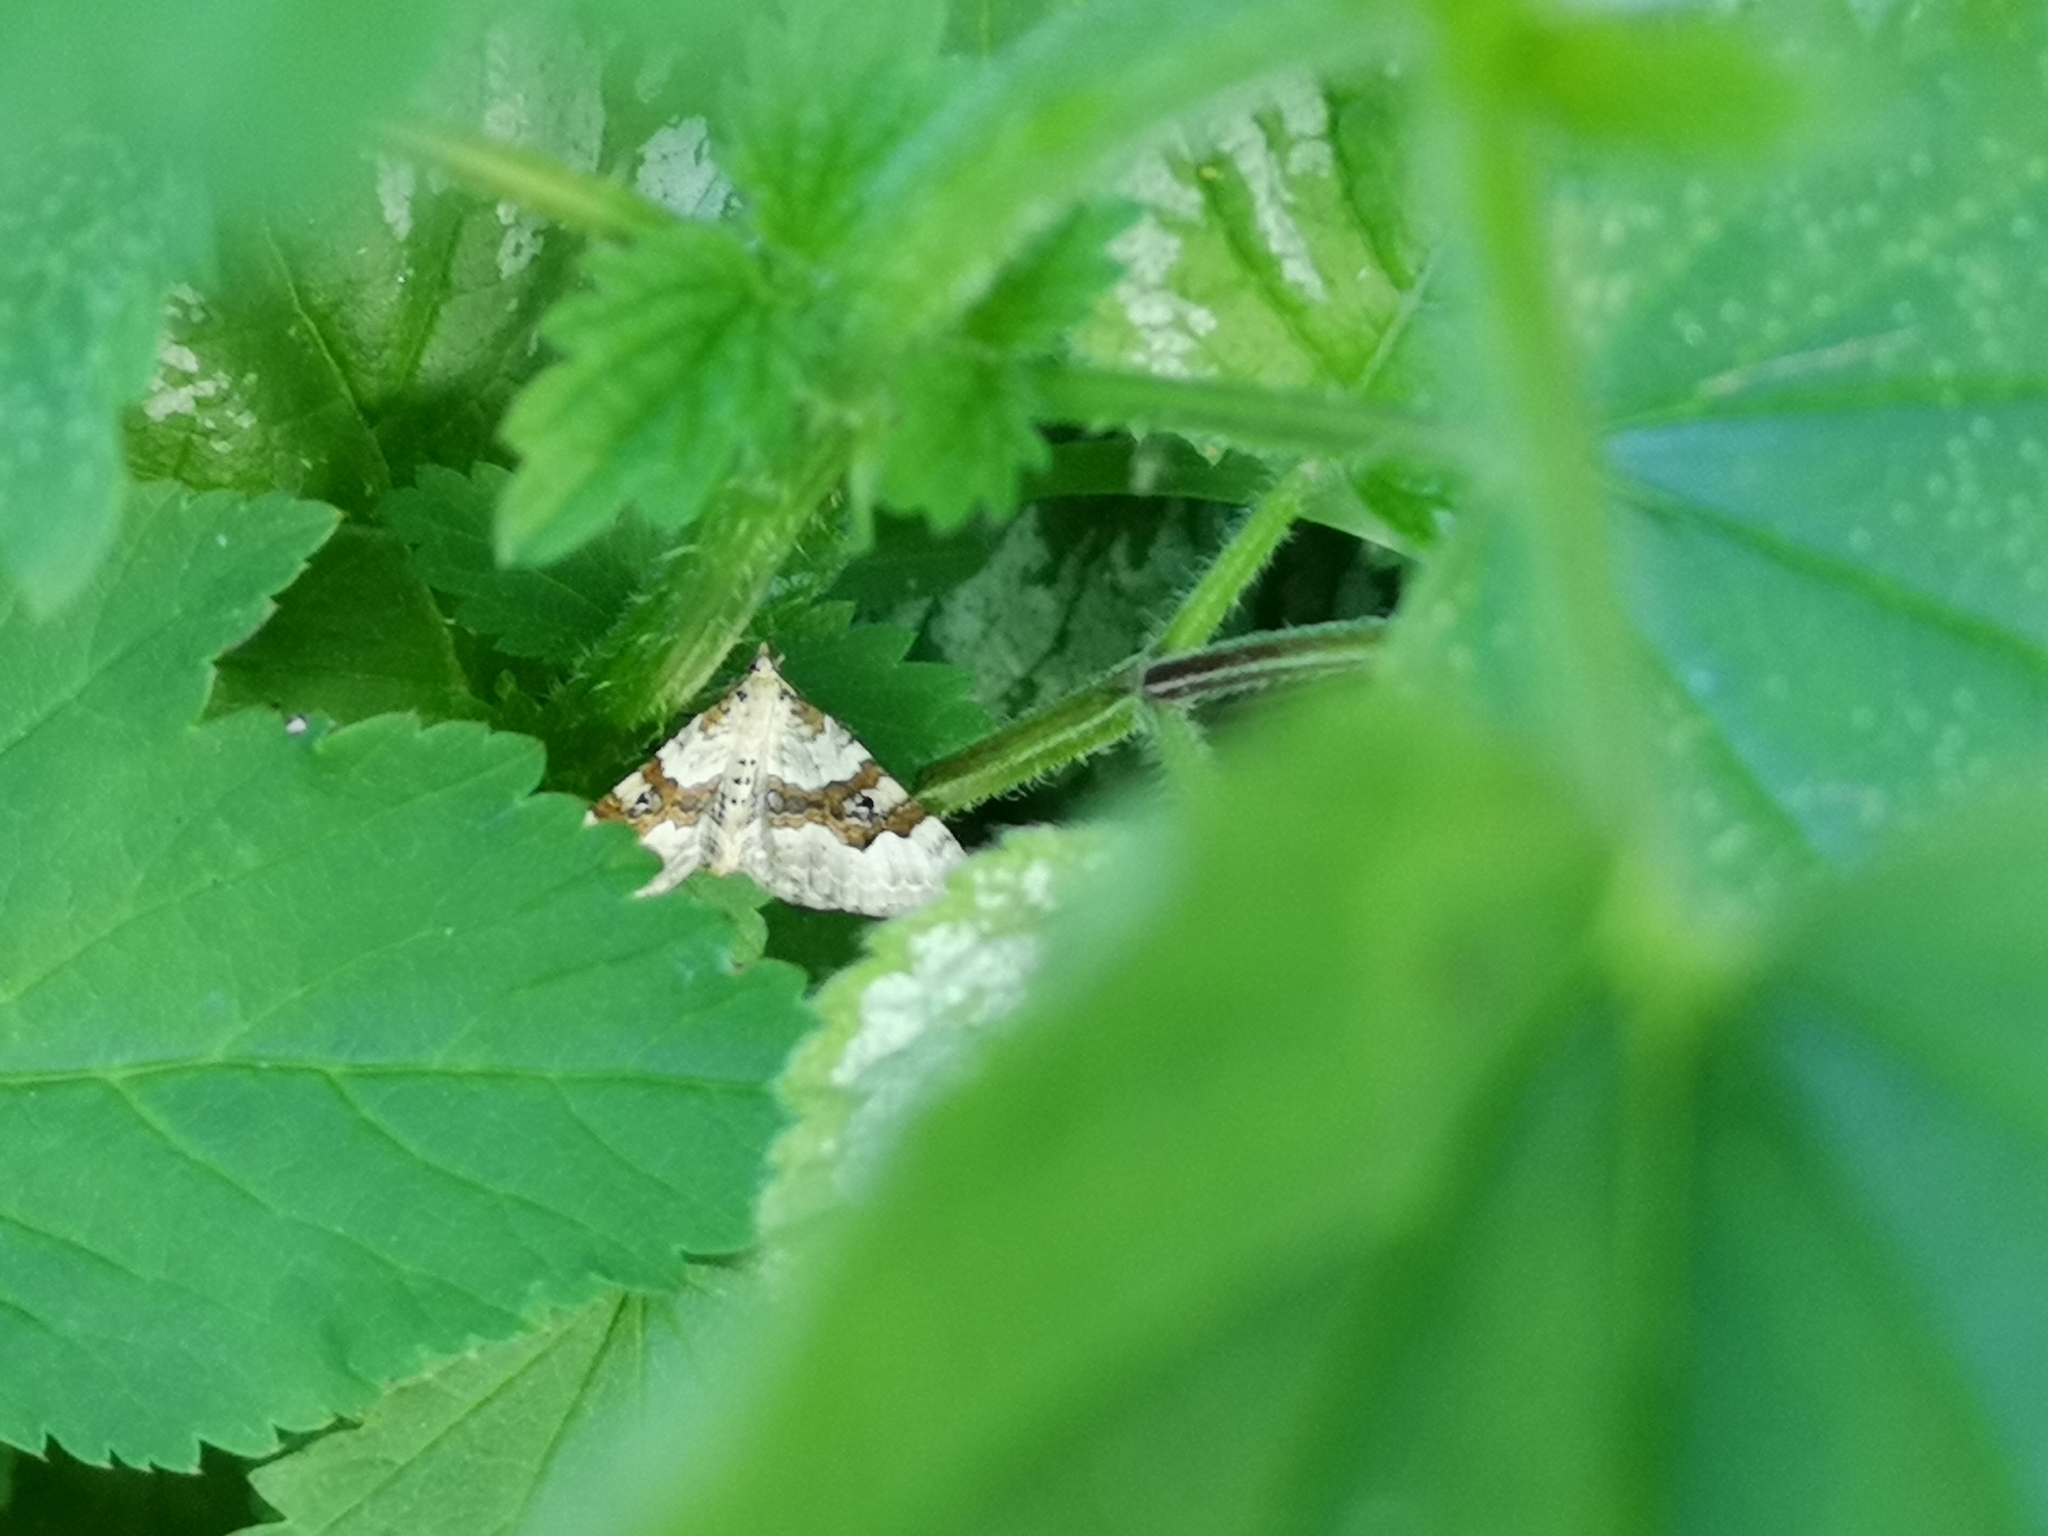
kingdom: Animalia
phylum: Arthropoda
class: Insecta
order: Lepidoptera
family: Geometridae
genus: Xanthorhoe
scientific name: Xanthorhoe montanata
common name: Silver-ground carpet
